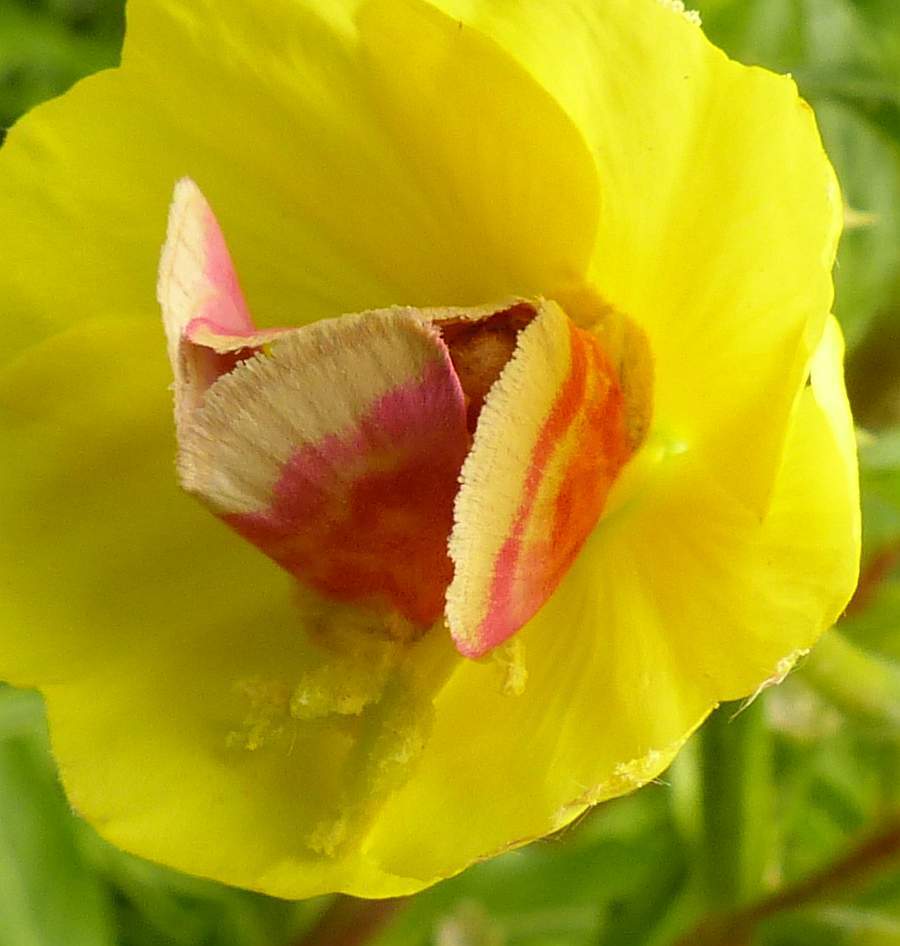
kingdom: Animalia
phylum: Arthropoda
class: Insecta
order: Lepidoptera
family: Noctuidae
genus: Schinia
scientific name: Schinia florida
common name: Primrose moth
